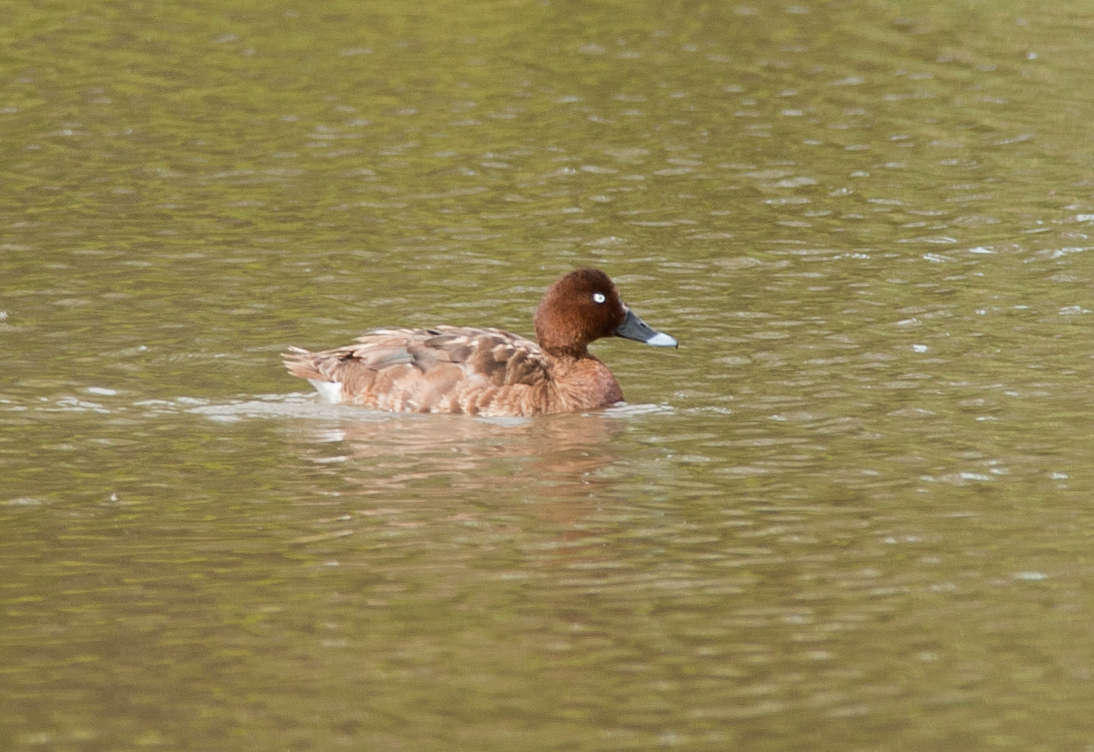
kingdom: Animalia
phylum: Chordata
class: Aves
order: Anseriformes
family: Anatidae
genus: Aythya
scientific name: Aythya australis
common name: Hardhead
